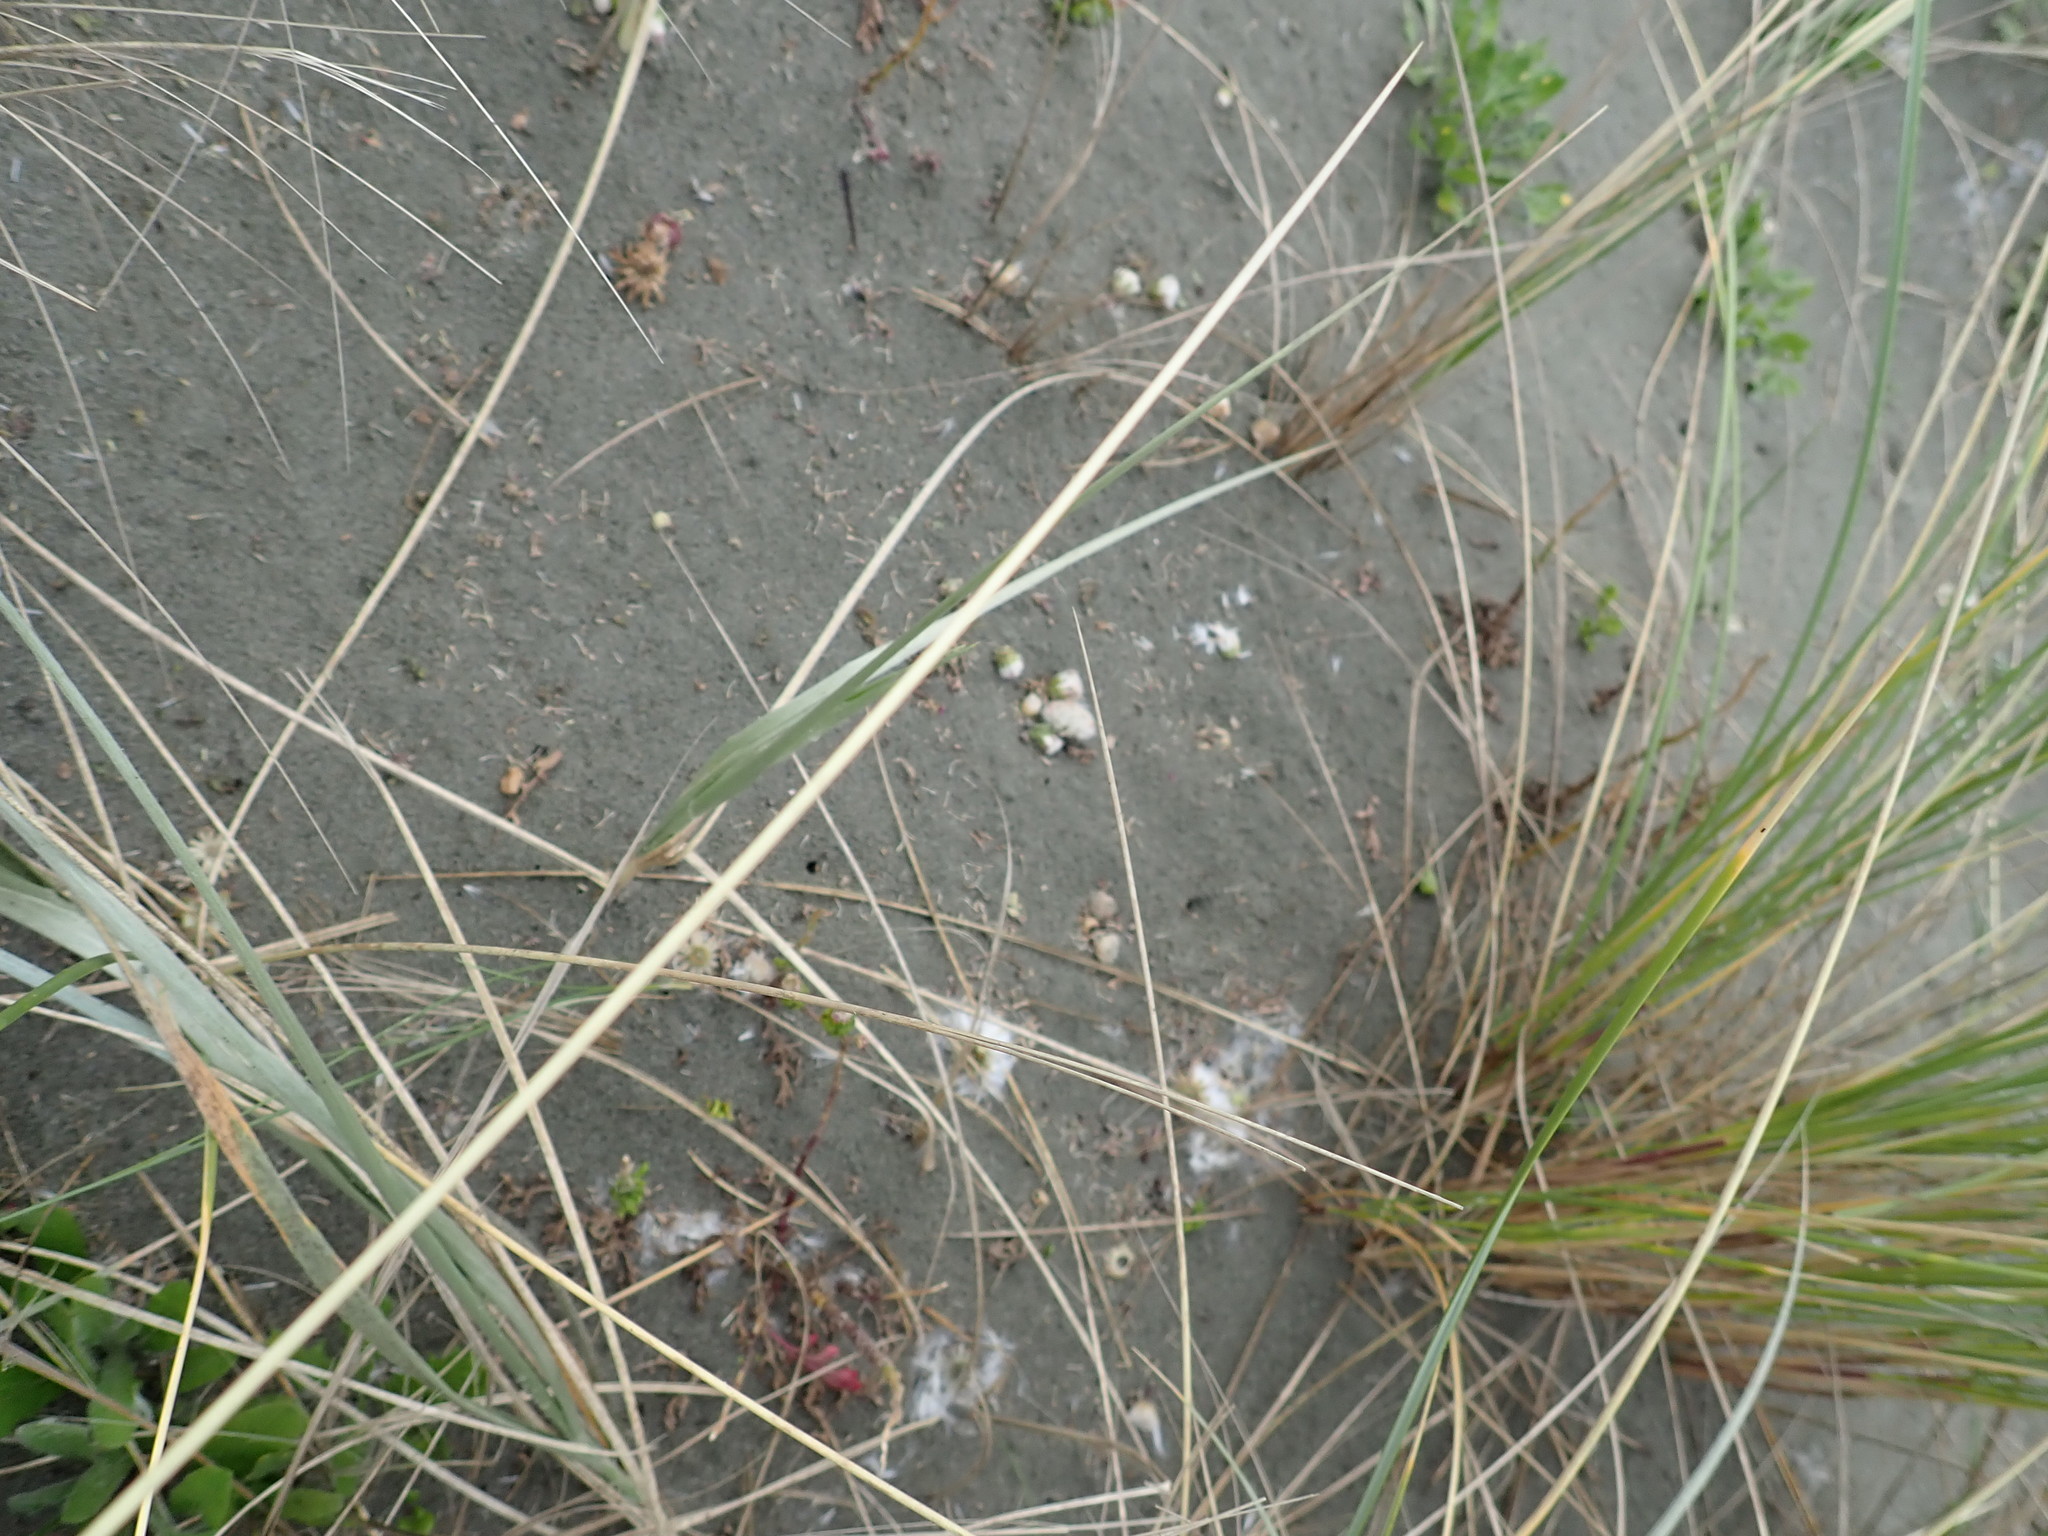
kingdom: Plantae
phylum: Tracheophyta
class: Magnoliopsida
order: Asterales
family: Asteraceae
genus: Senecio
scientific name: Senecio elegans
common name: Purple groundsel
